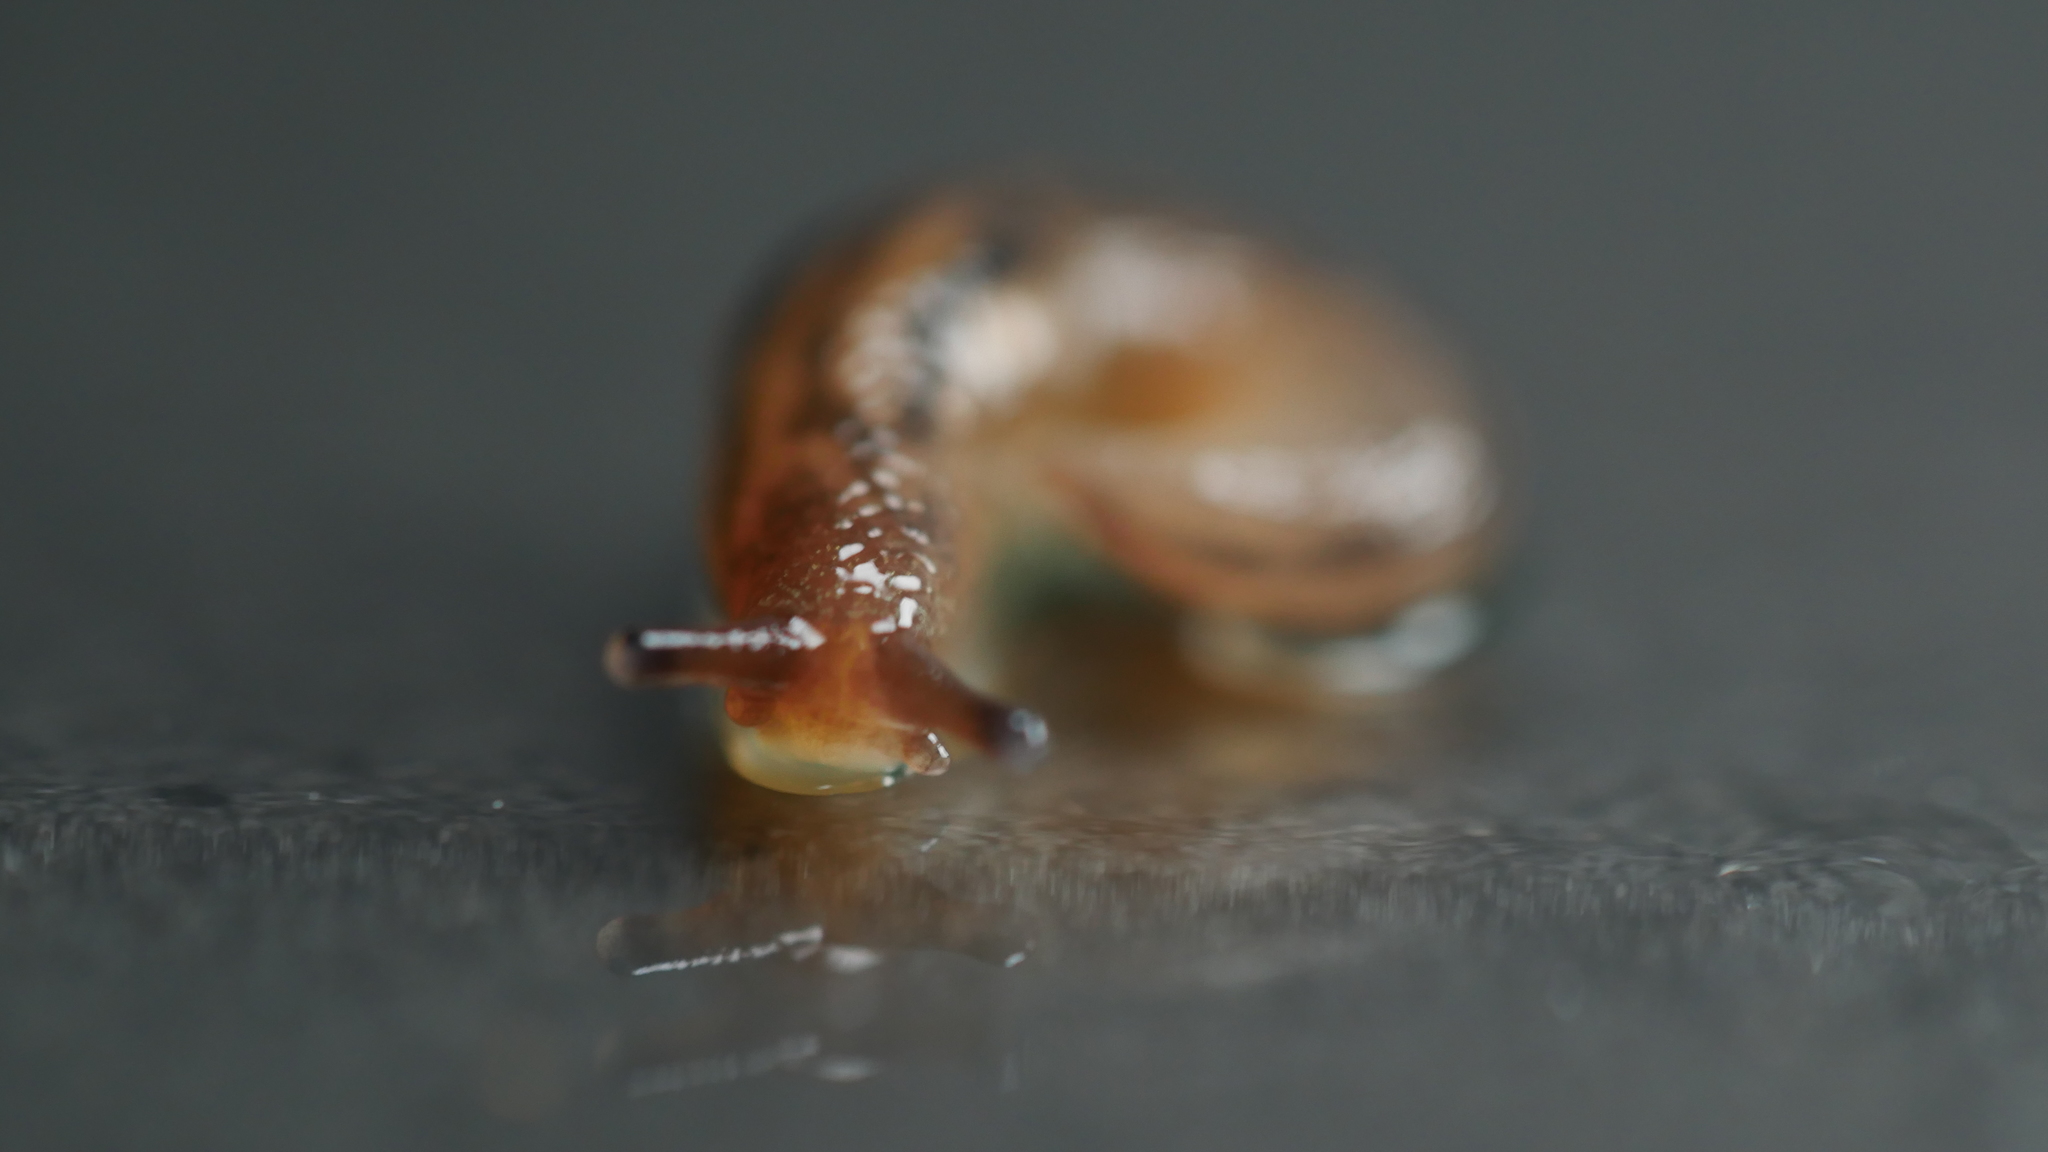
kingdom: Animalia
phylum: Mollusca
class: Gastropoda
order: Stylommatophora
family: Limacidae
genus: Ambigolimax
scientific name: Ambigolimax
